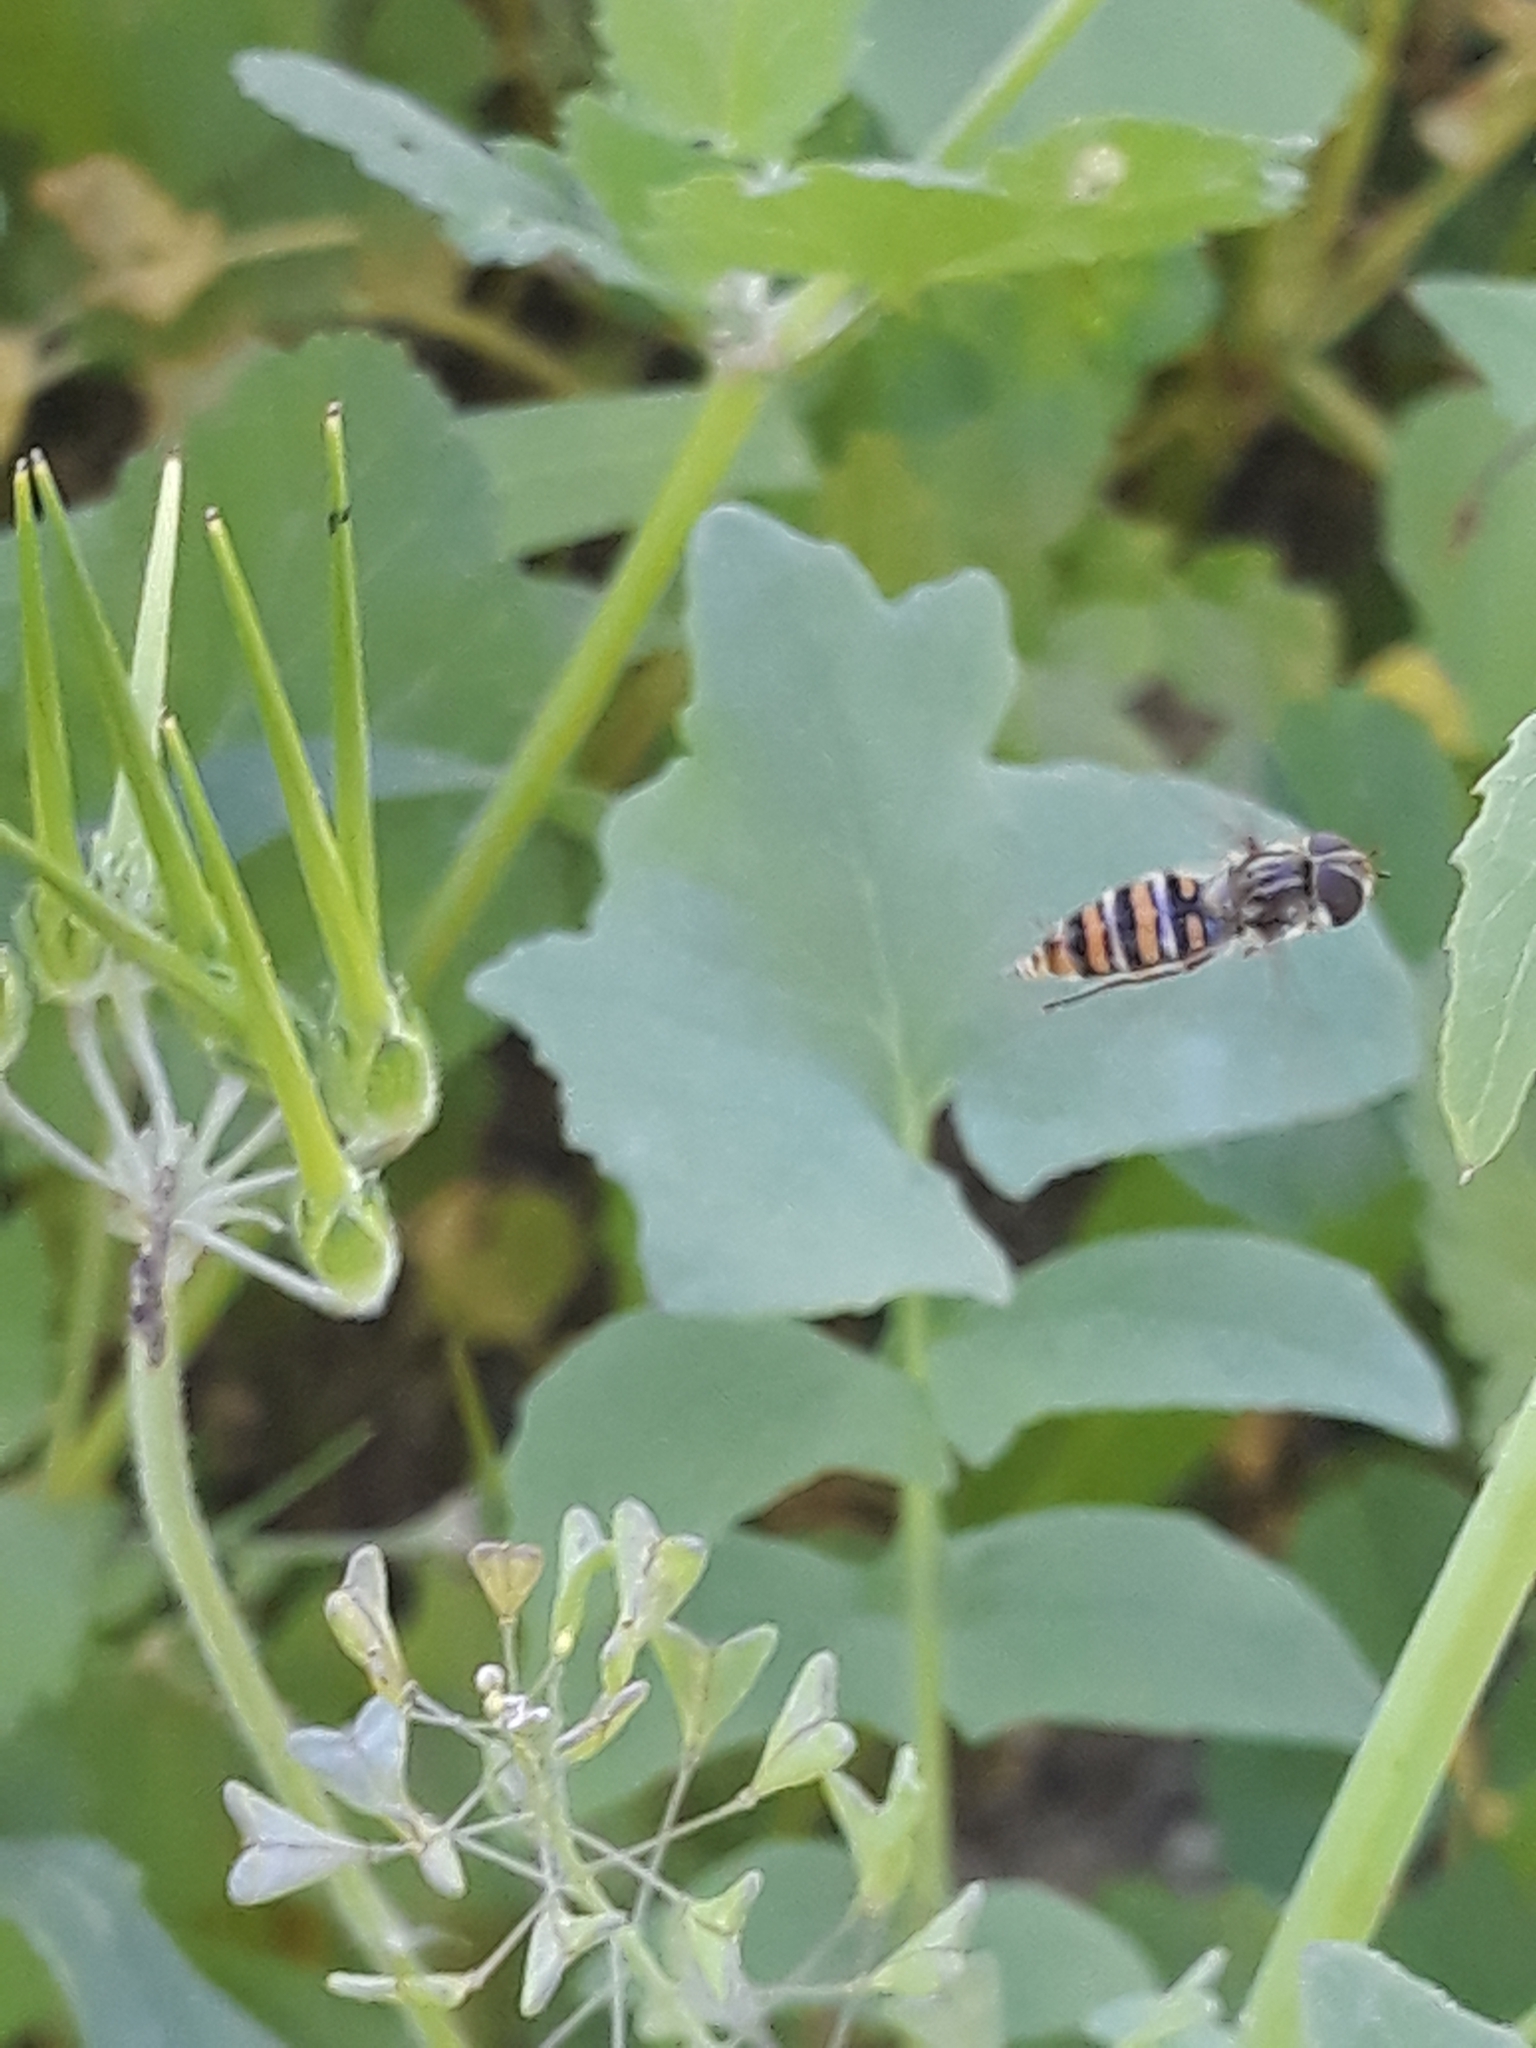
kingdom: Animalia
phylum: Arthropoda
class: Insecta
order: Diptera
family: Syrphidae
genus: Episyrphus
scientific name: Episyrphus balteatus
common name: Marmalade hoverfly
